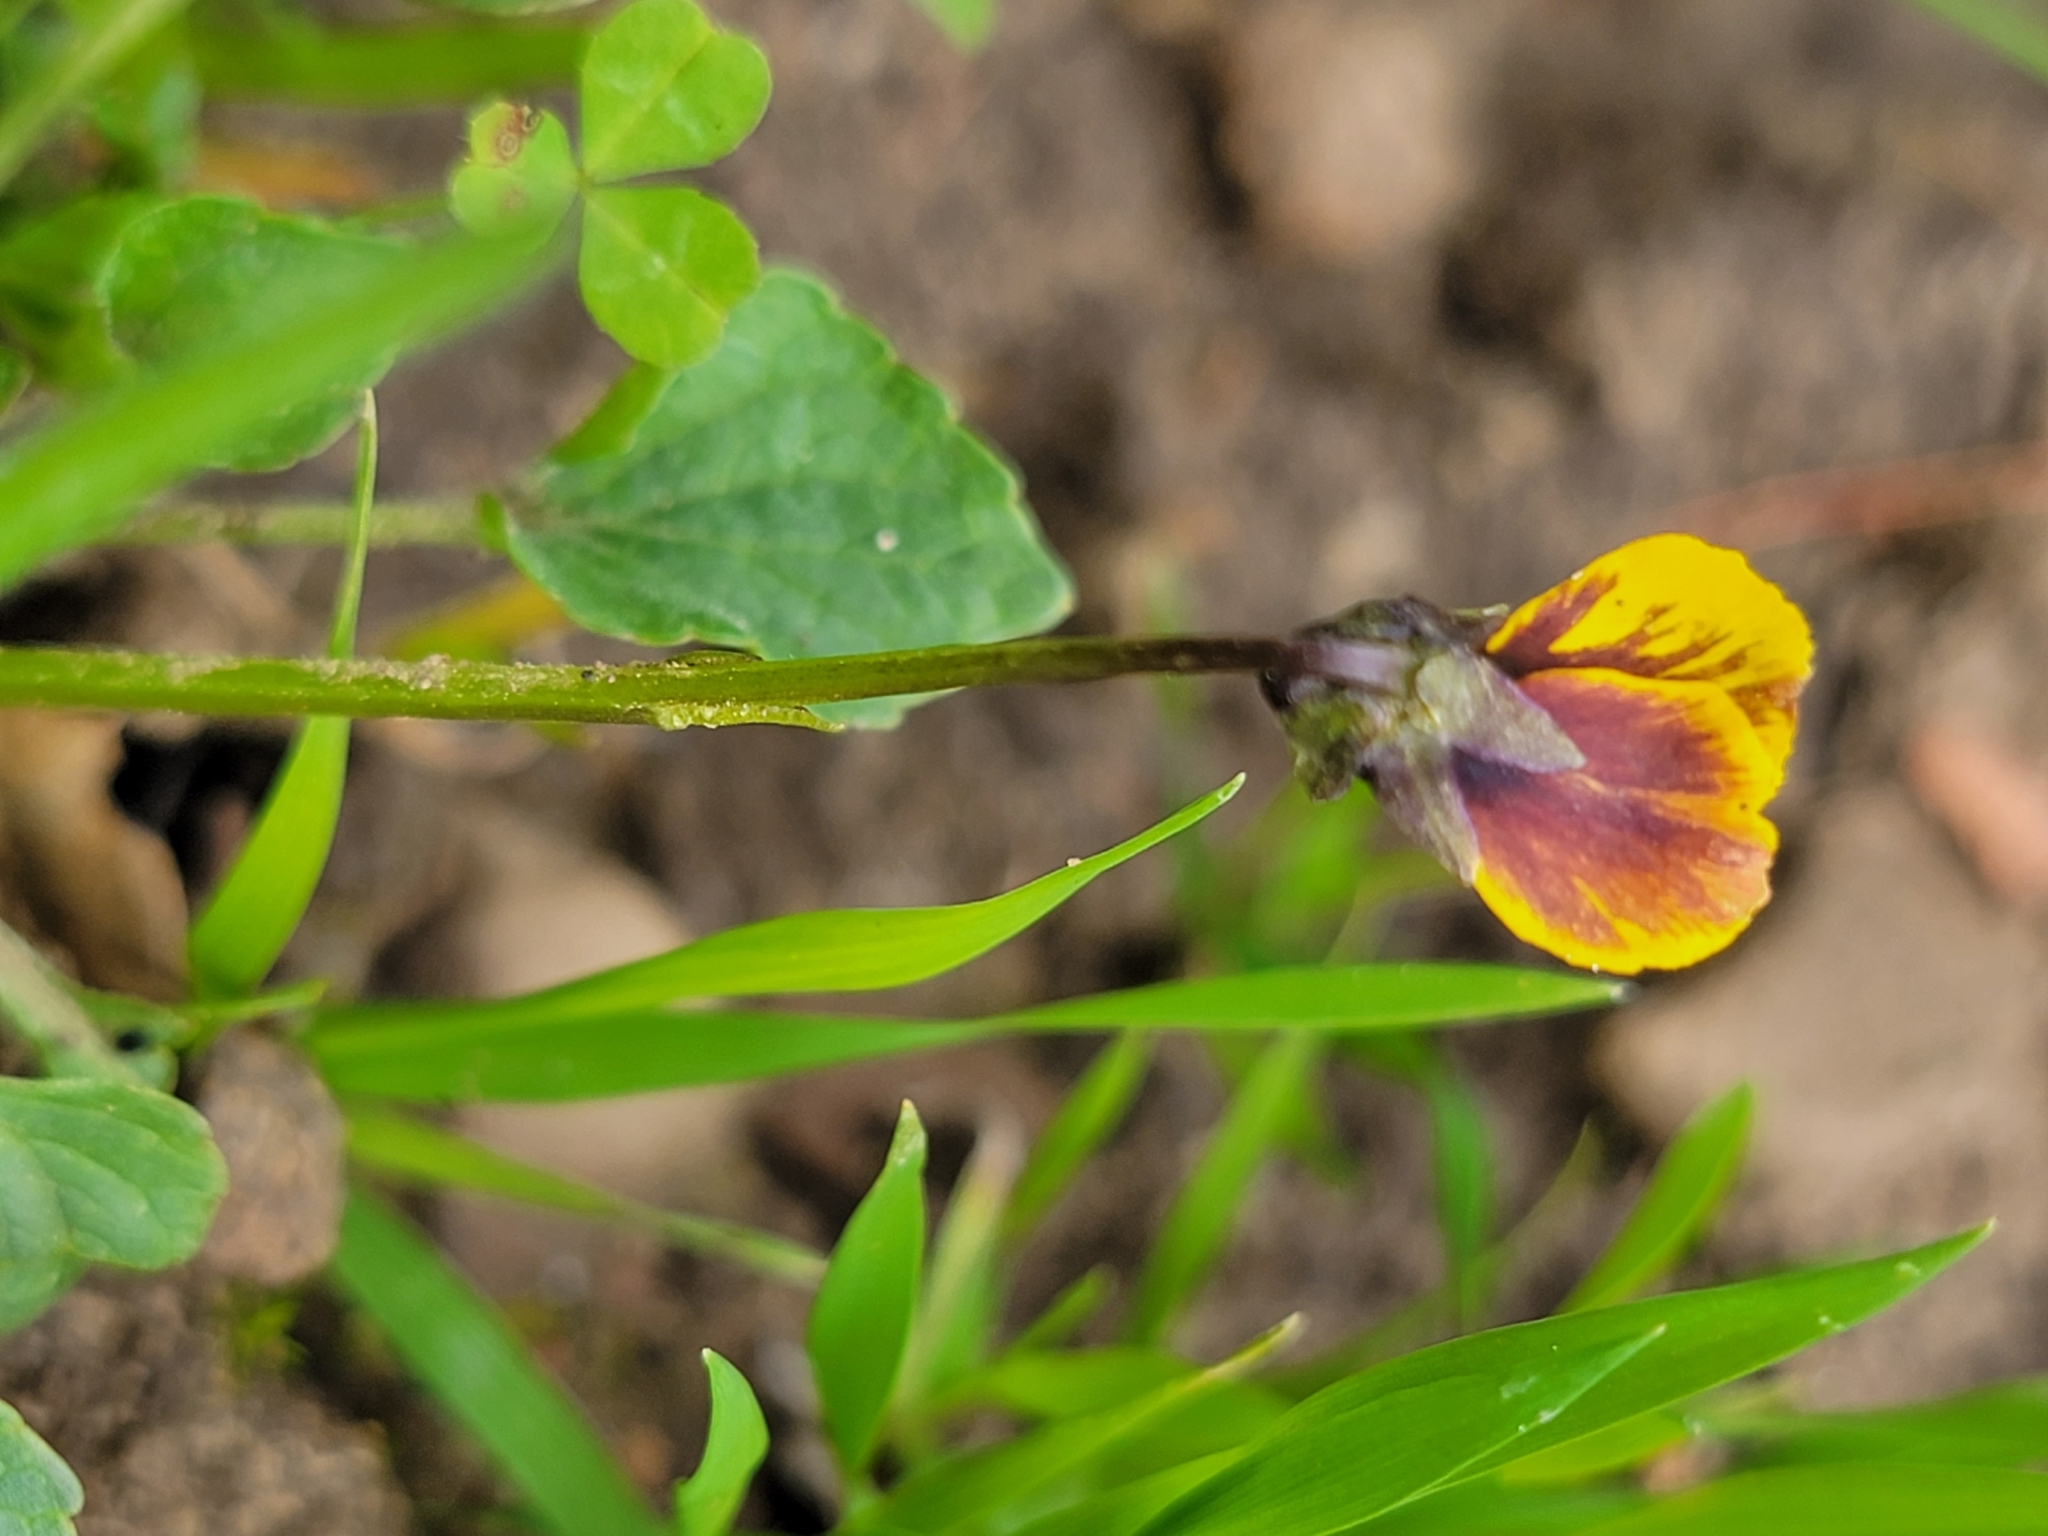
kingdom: Plantae
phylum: Tracheophyta
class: Magnoliopsida
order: Malpighiales
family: Violaceae
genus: Viola
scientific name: Viola pedunculata
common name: California golden violet
